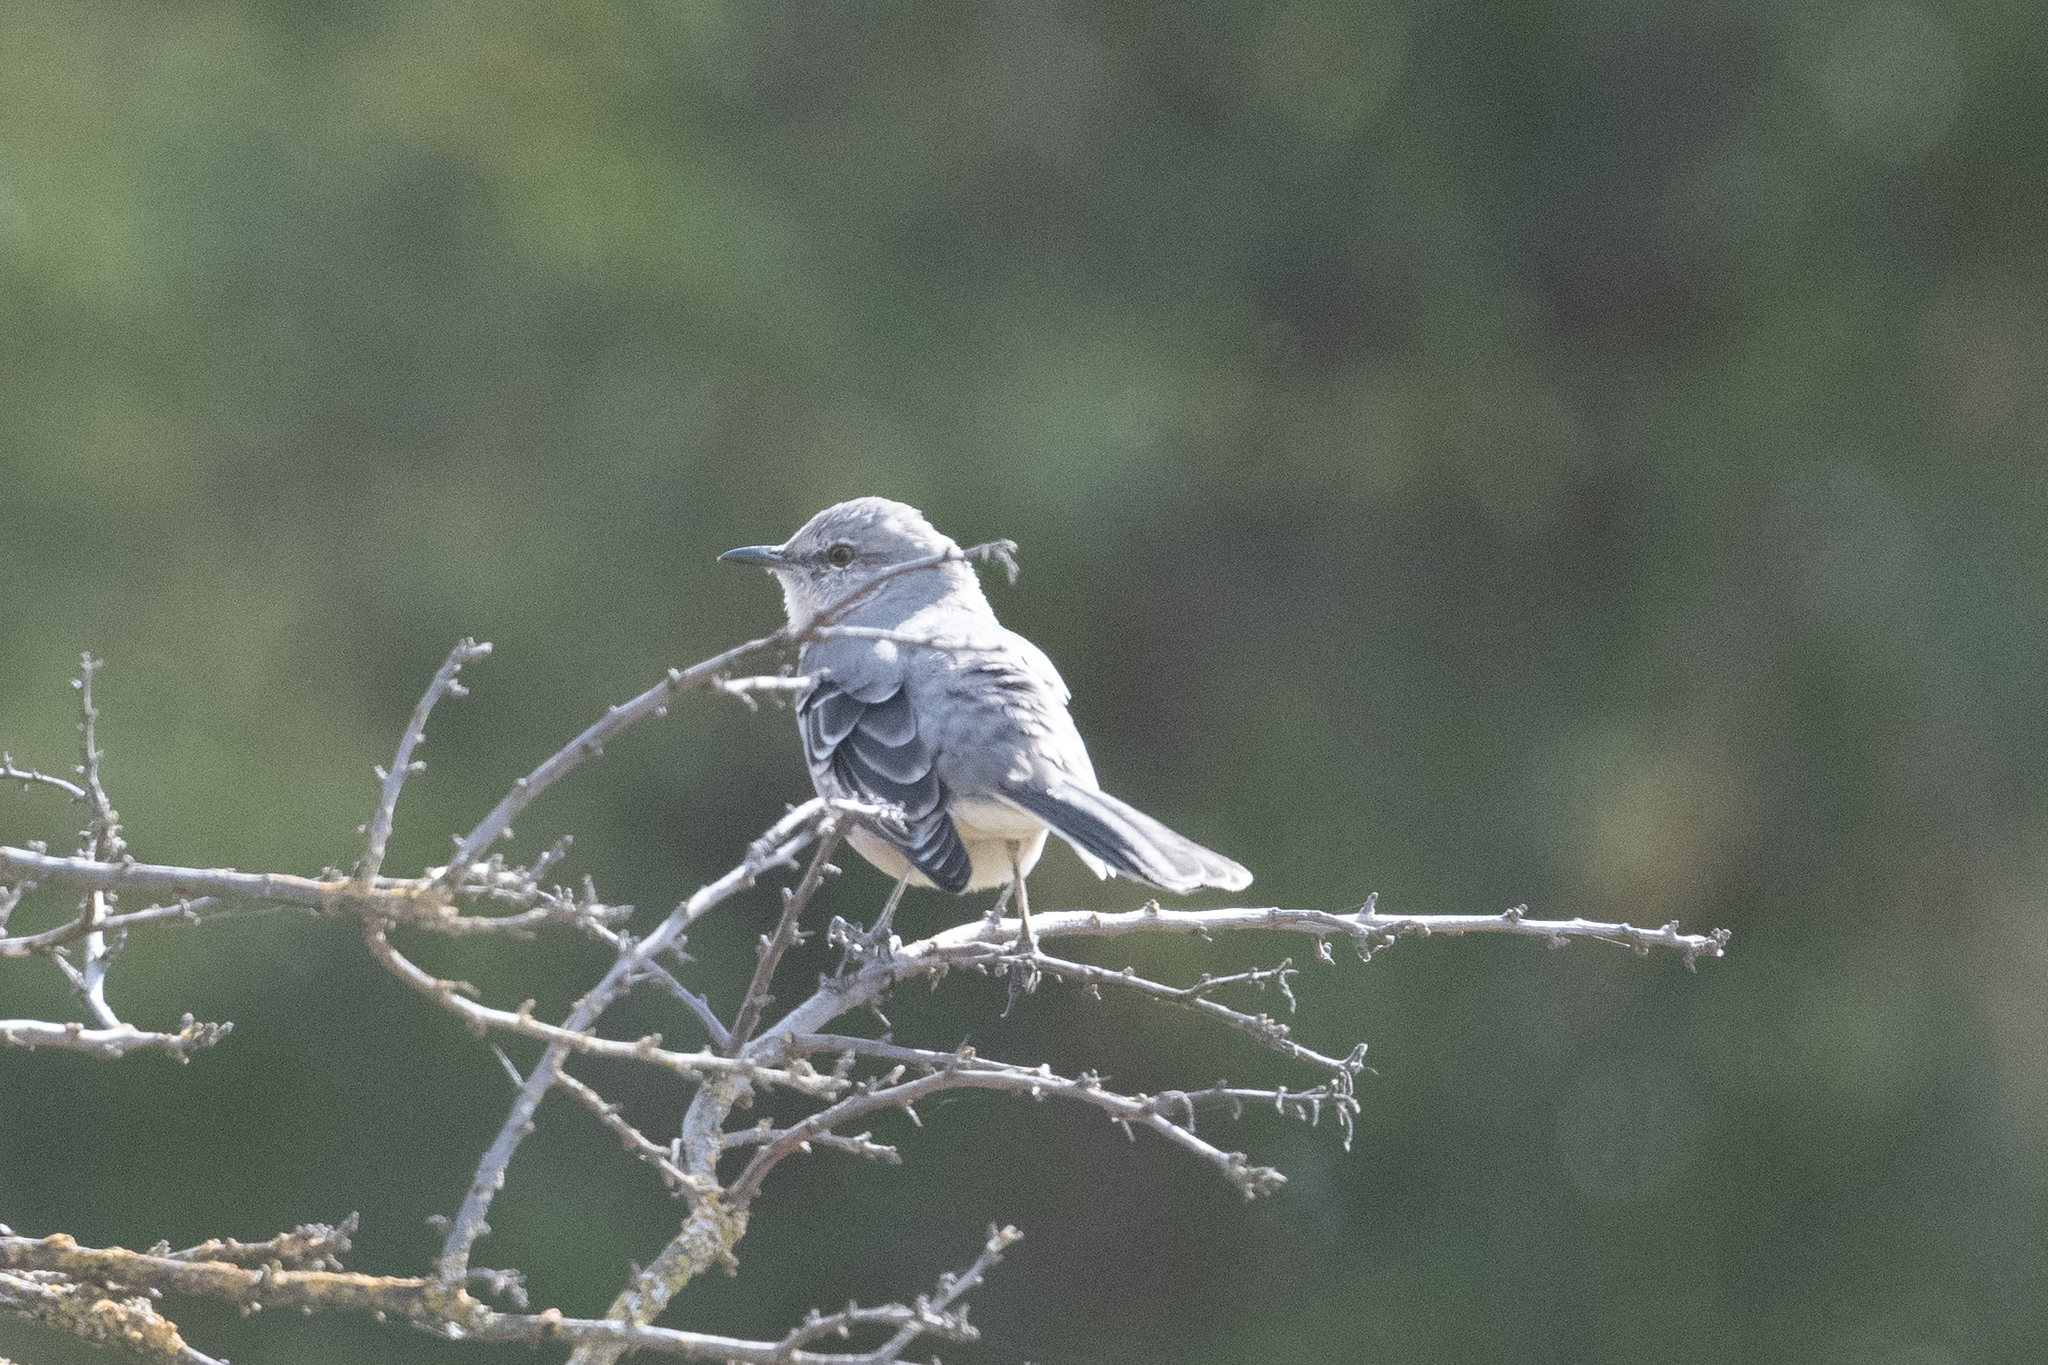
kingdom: Animalia
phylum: Chordata
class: Aves
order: Passeriformes
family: Mimidae
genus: Mimus
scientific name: Mimus polyglottos
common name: Northern mockingbird
